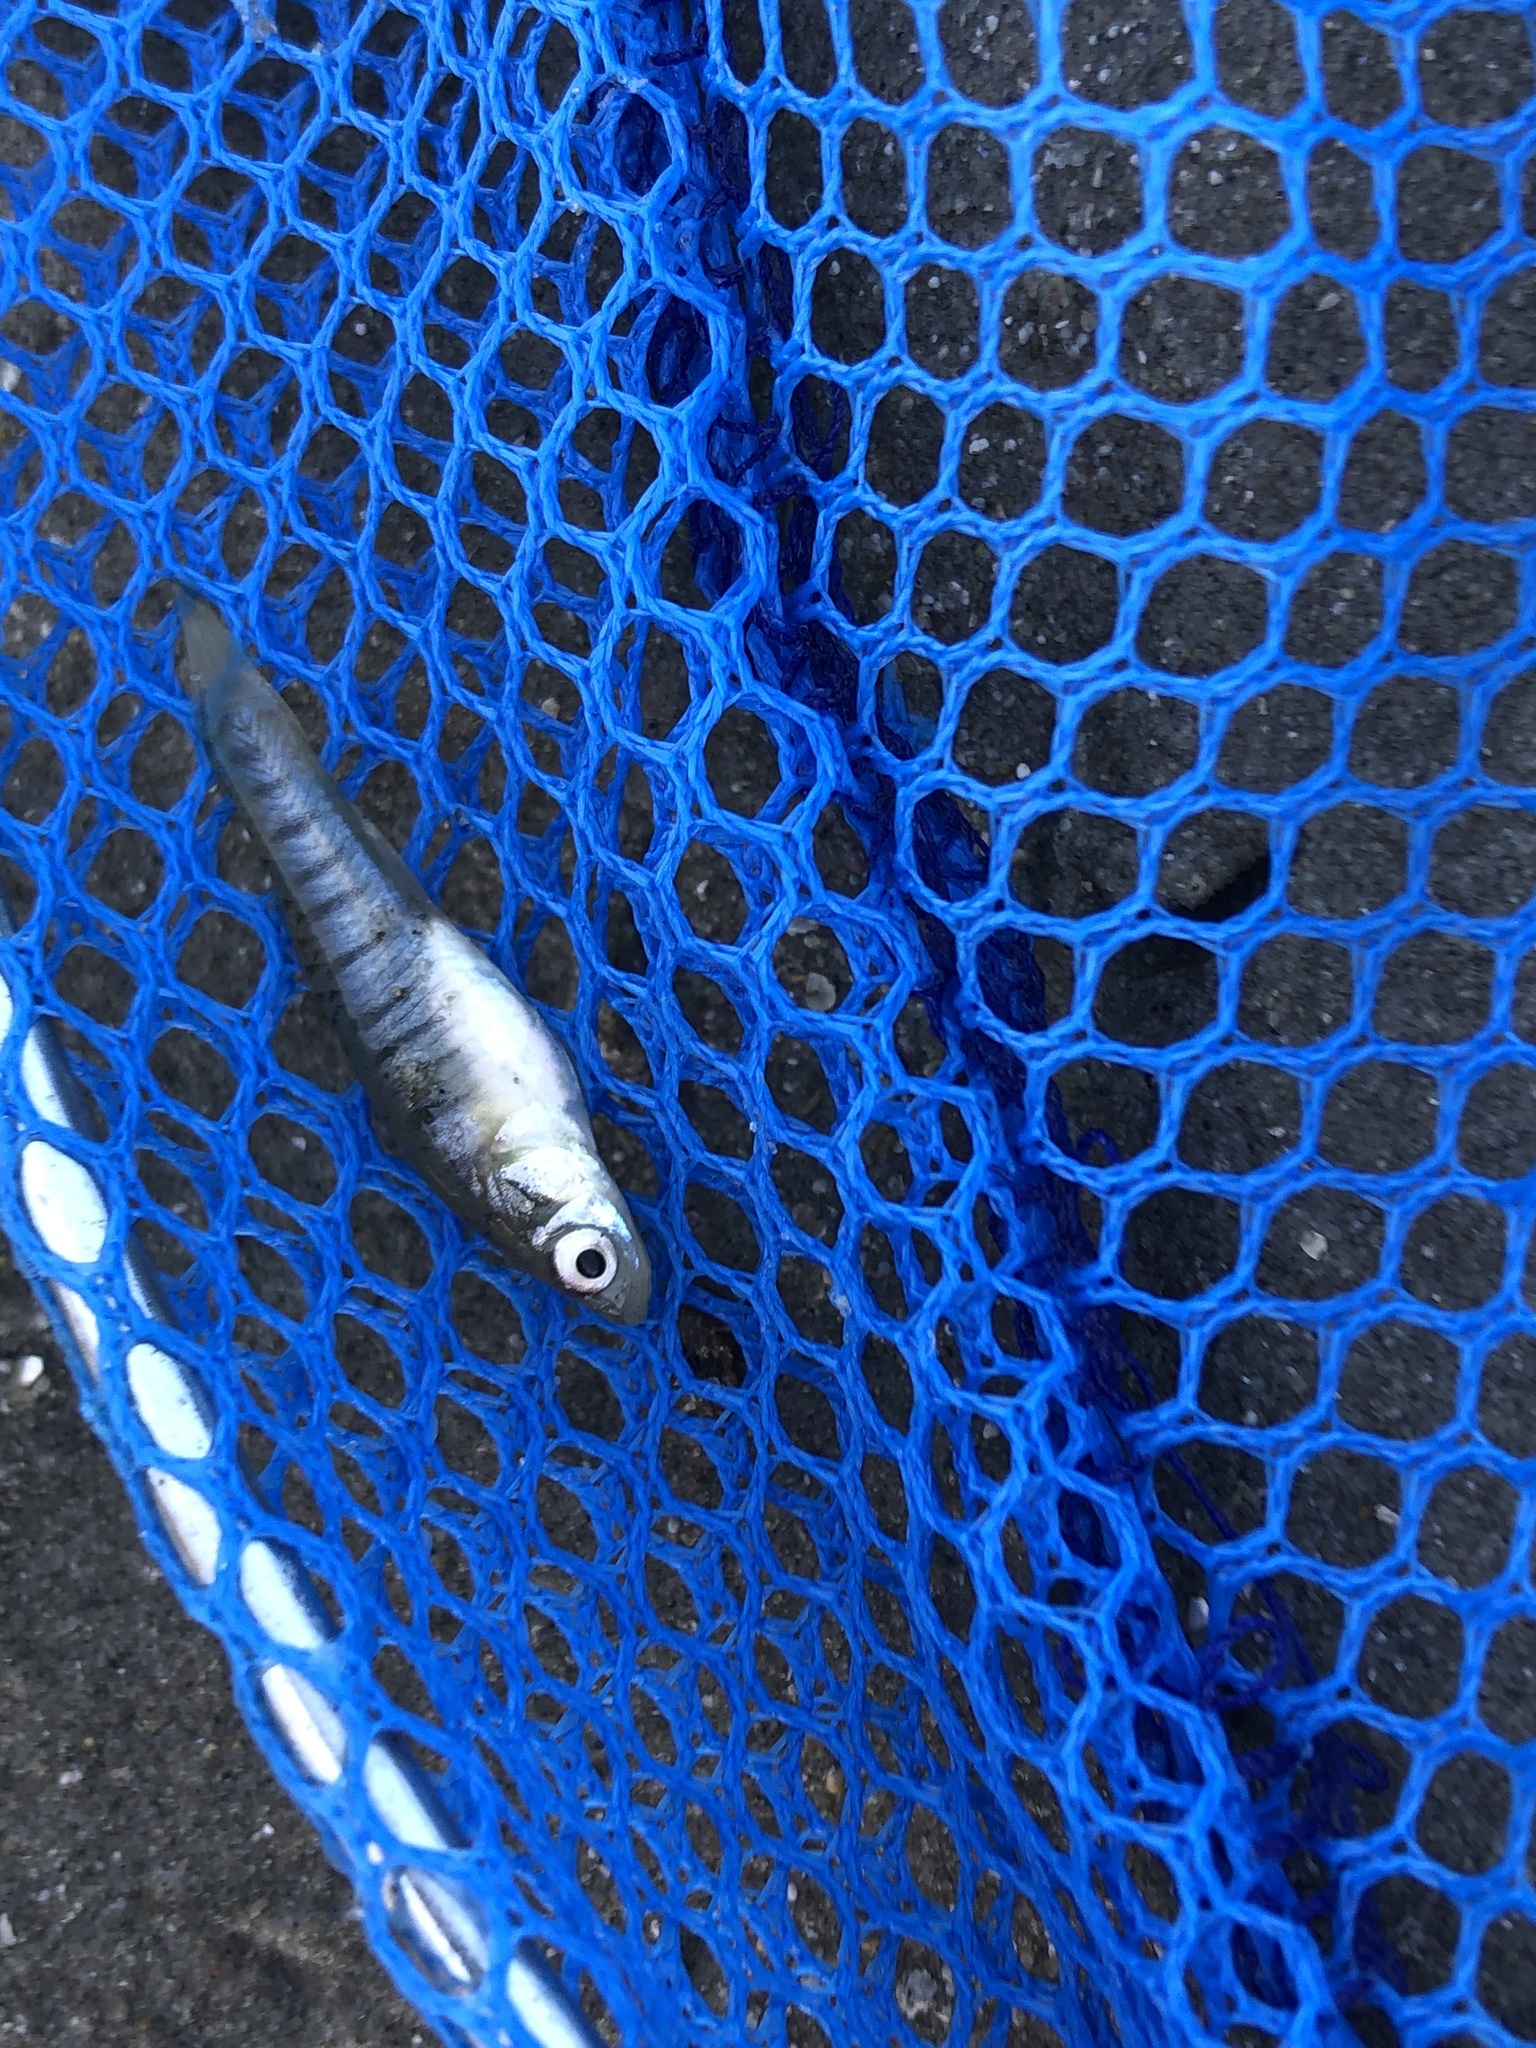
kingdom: Animalia
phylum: Chordata
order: Cyprinodontiformes
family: Fundulidae
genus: Fundulus
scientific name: Fundulus heteroclitus
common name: Mummichog
